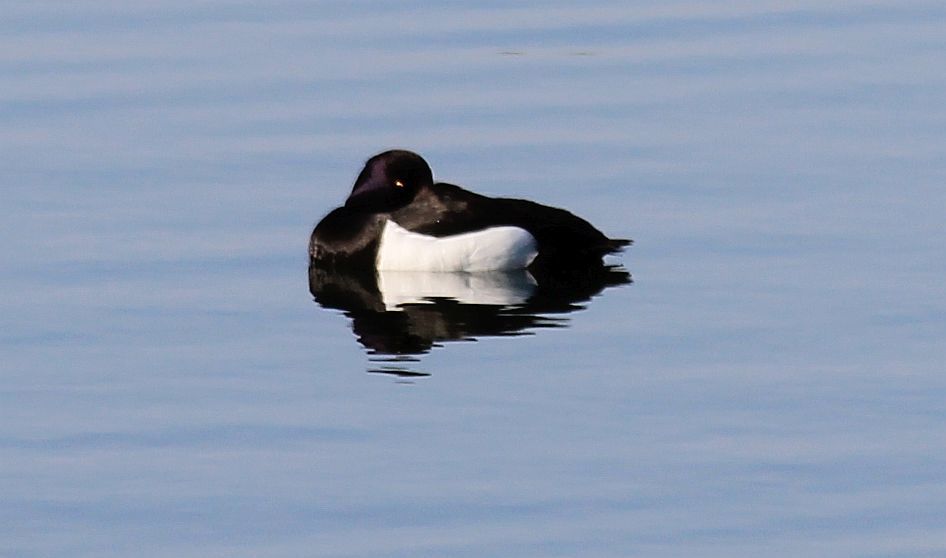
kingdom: Animalia
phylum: Chordata
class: Aves
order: Anseriformes
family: Anatidae
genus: Aythya
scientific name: Aythya fuligula
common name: Tufted duck
